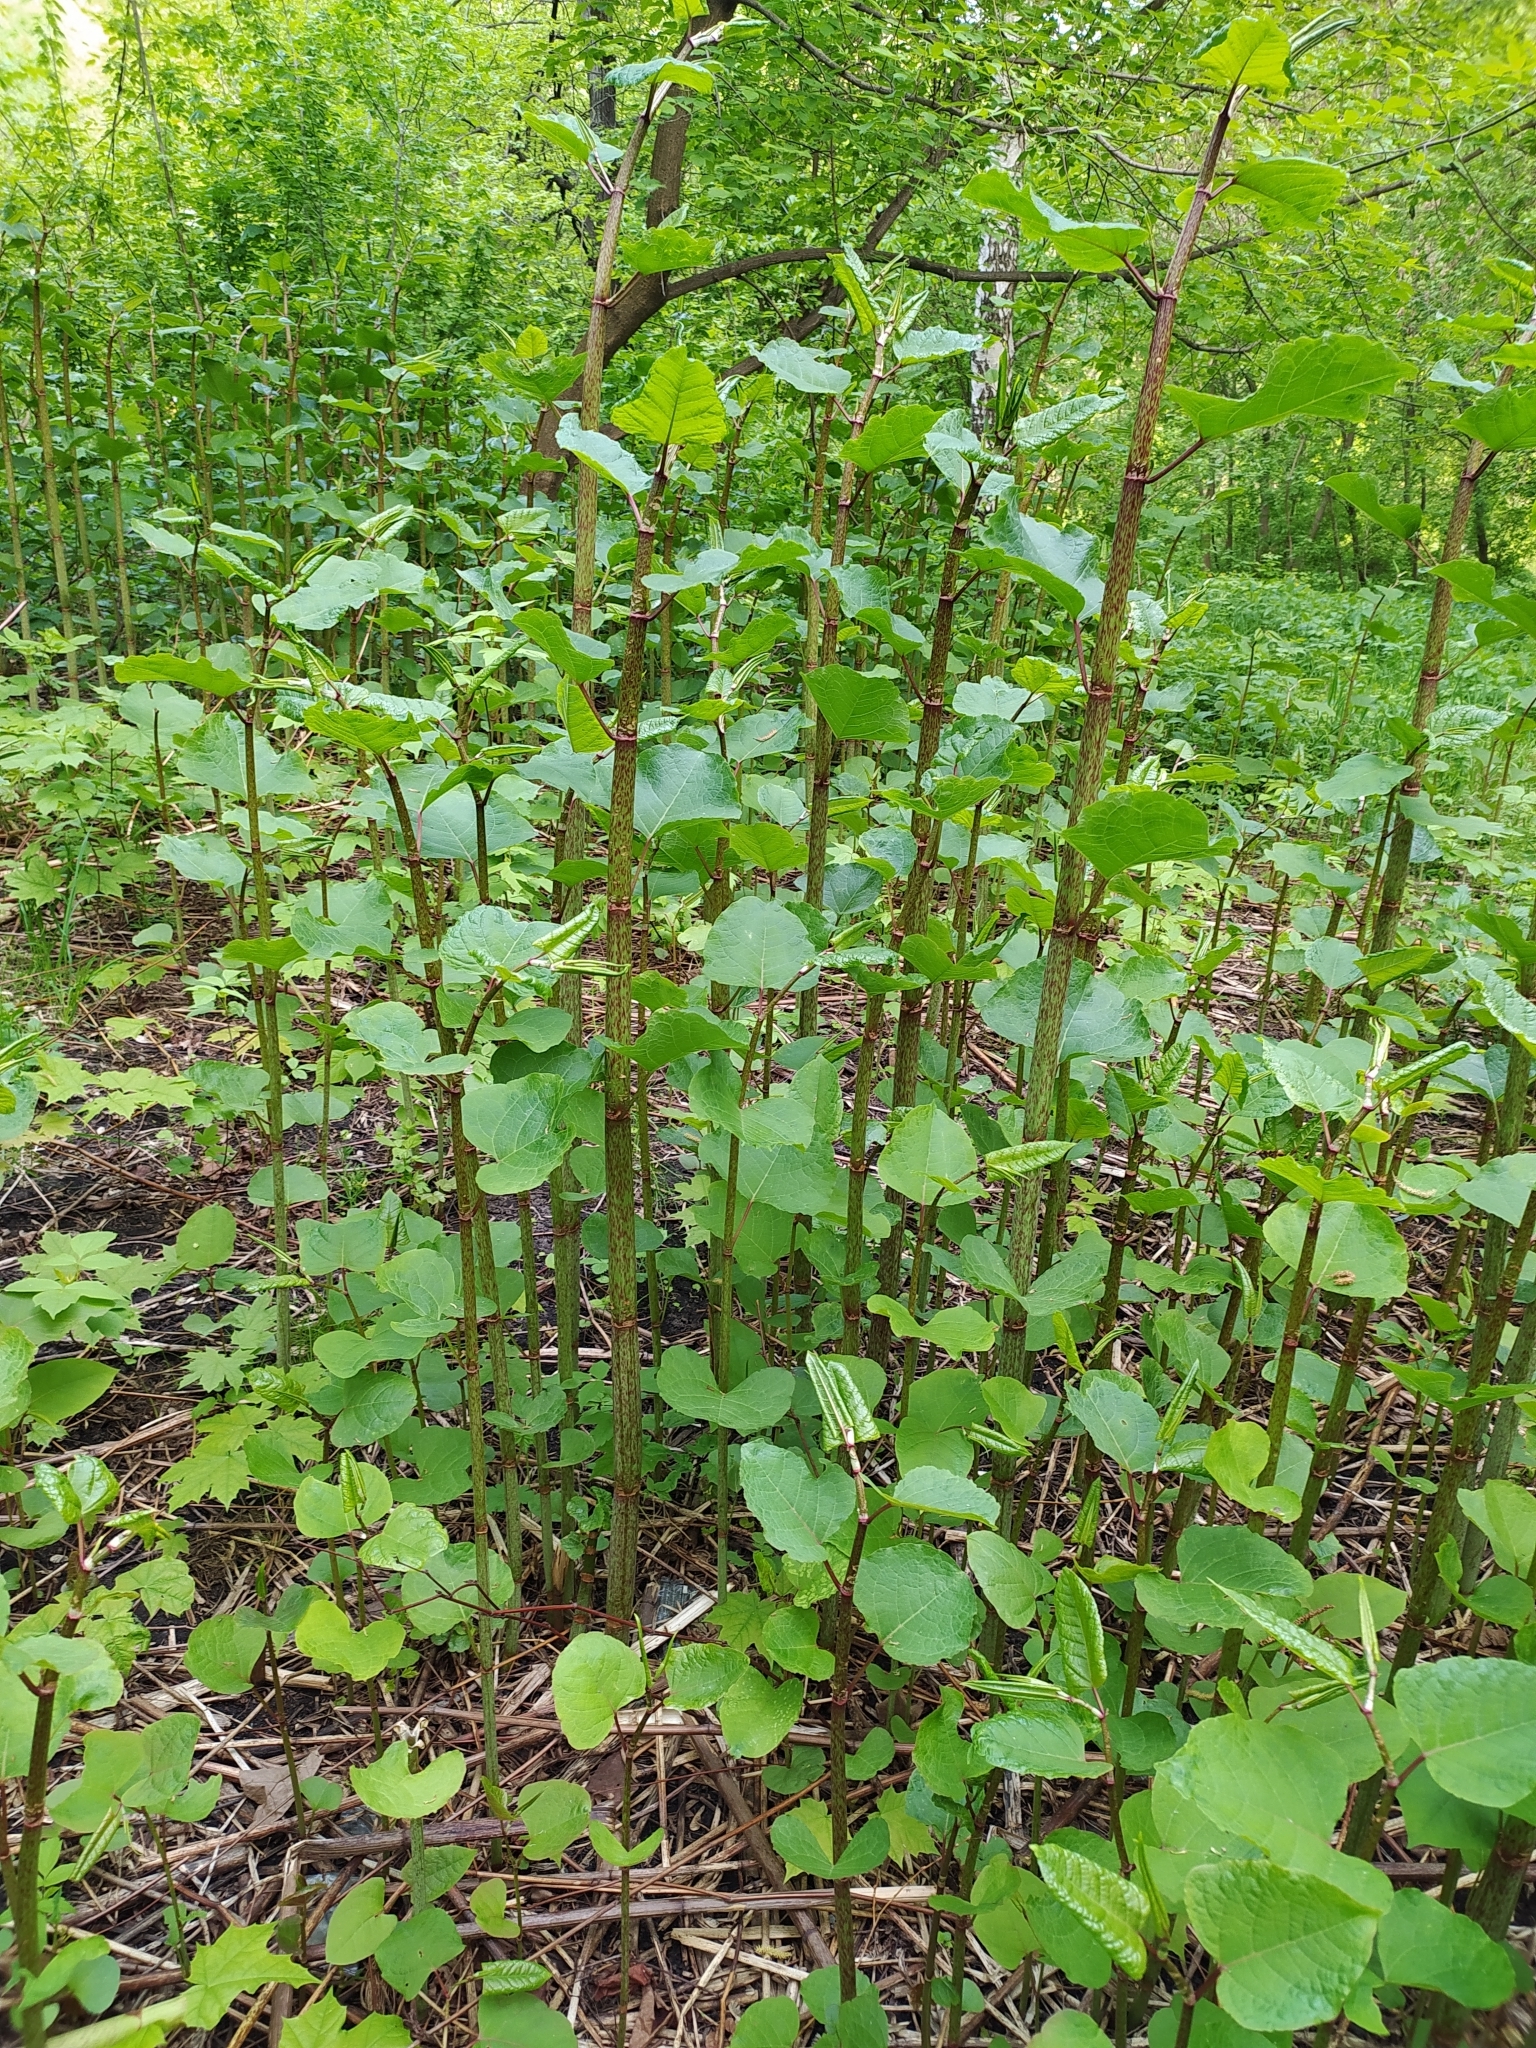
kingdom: Plantae
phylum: Tracheophyta
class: Magnoliopsida
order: Caryophyllales
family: Polygonaceae
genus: Reynoutria
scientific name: Reynoutria bohemica
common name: Bohemian knotweed
